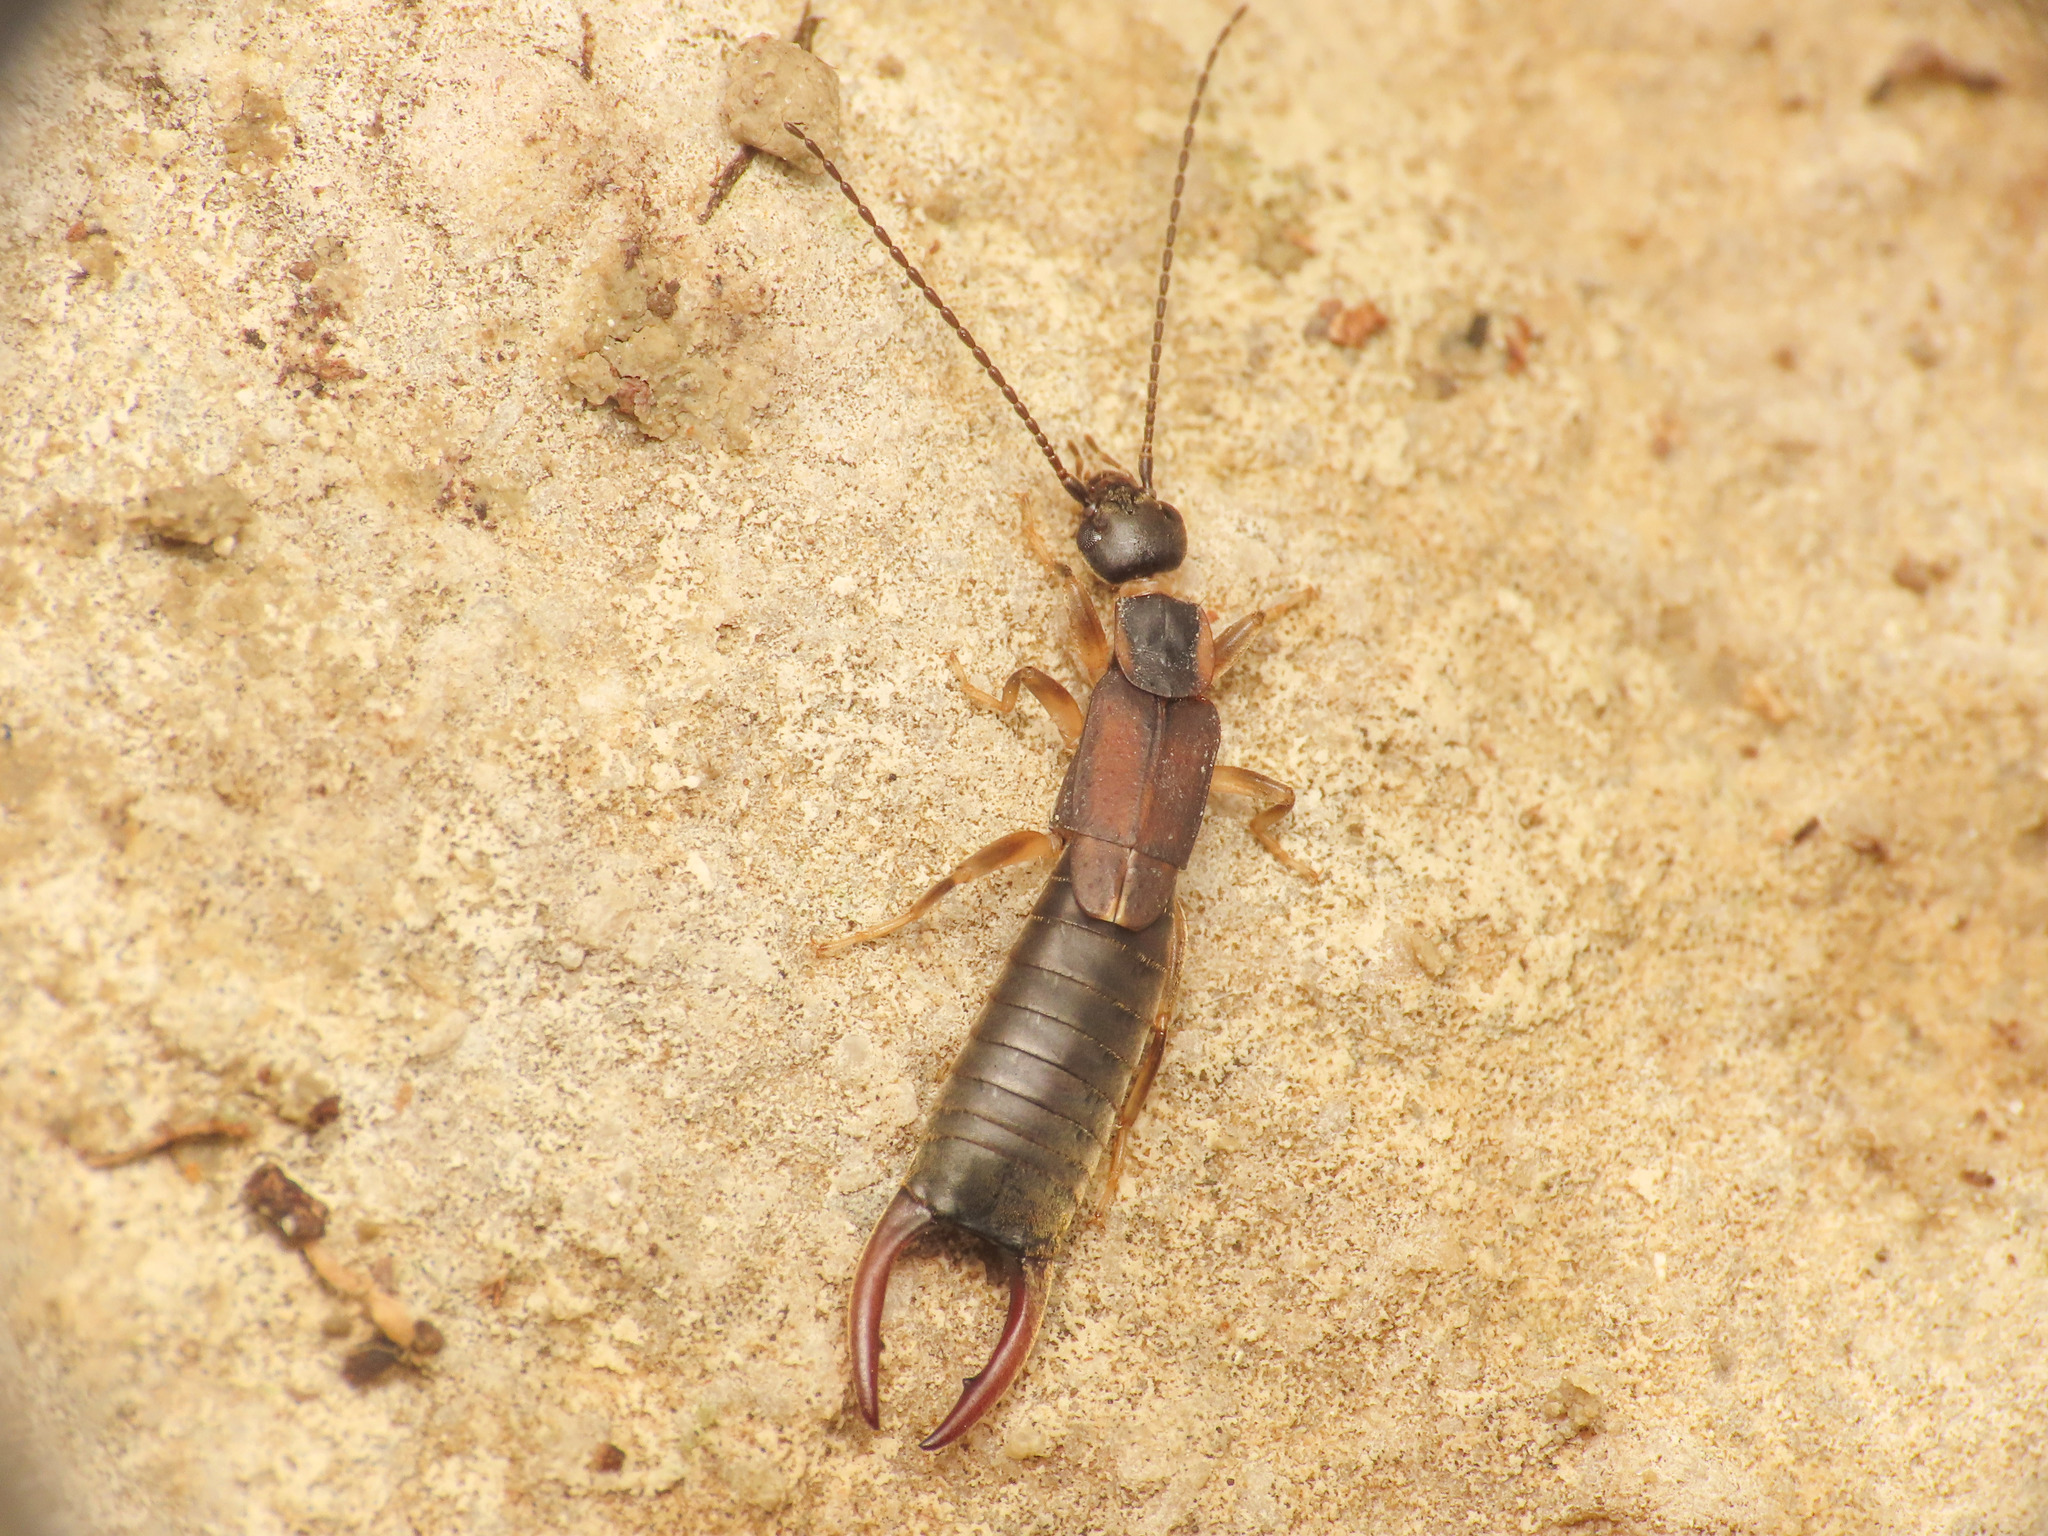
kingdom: Animalia
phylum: Arthropoda
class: Insecta
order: Dermaptera
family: Labiduridae
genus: Nala
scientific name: Nala lividipes
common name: Earwig
